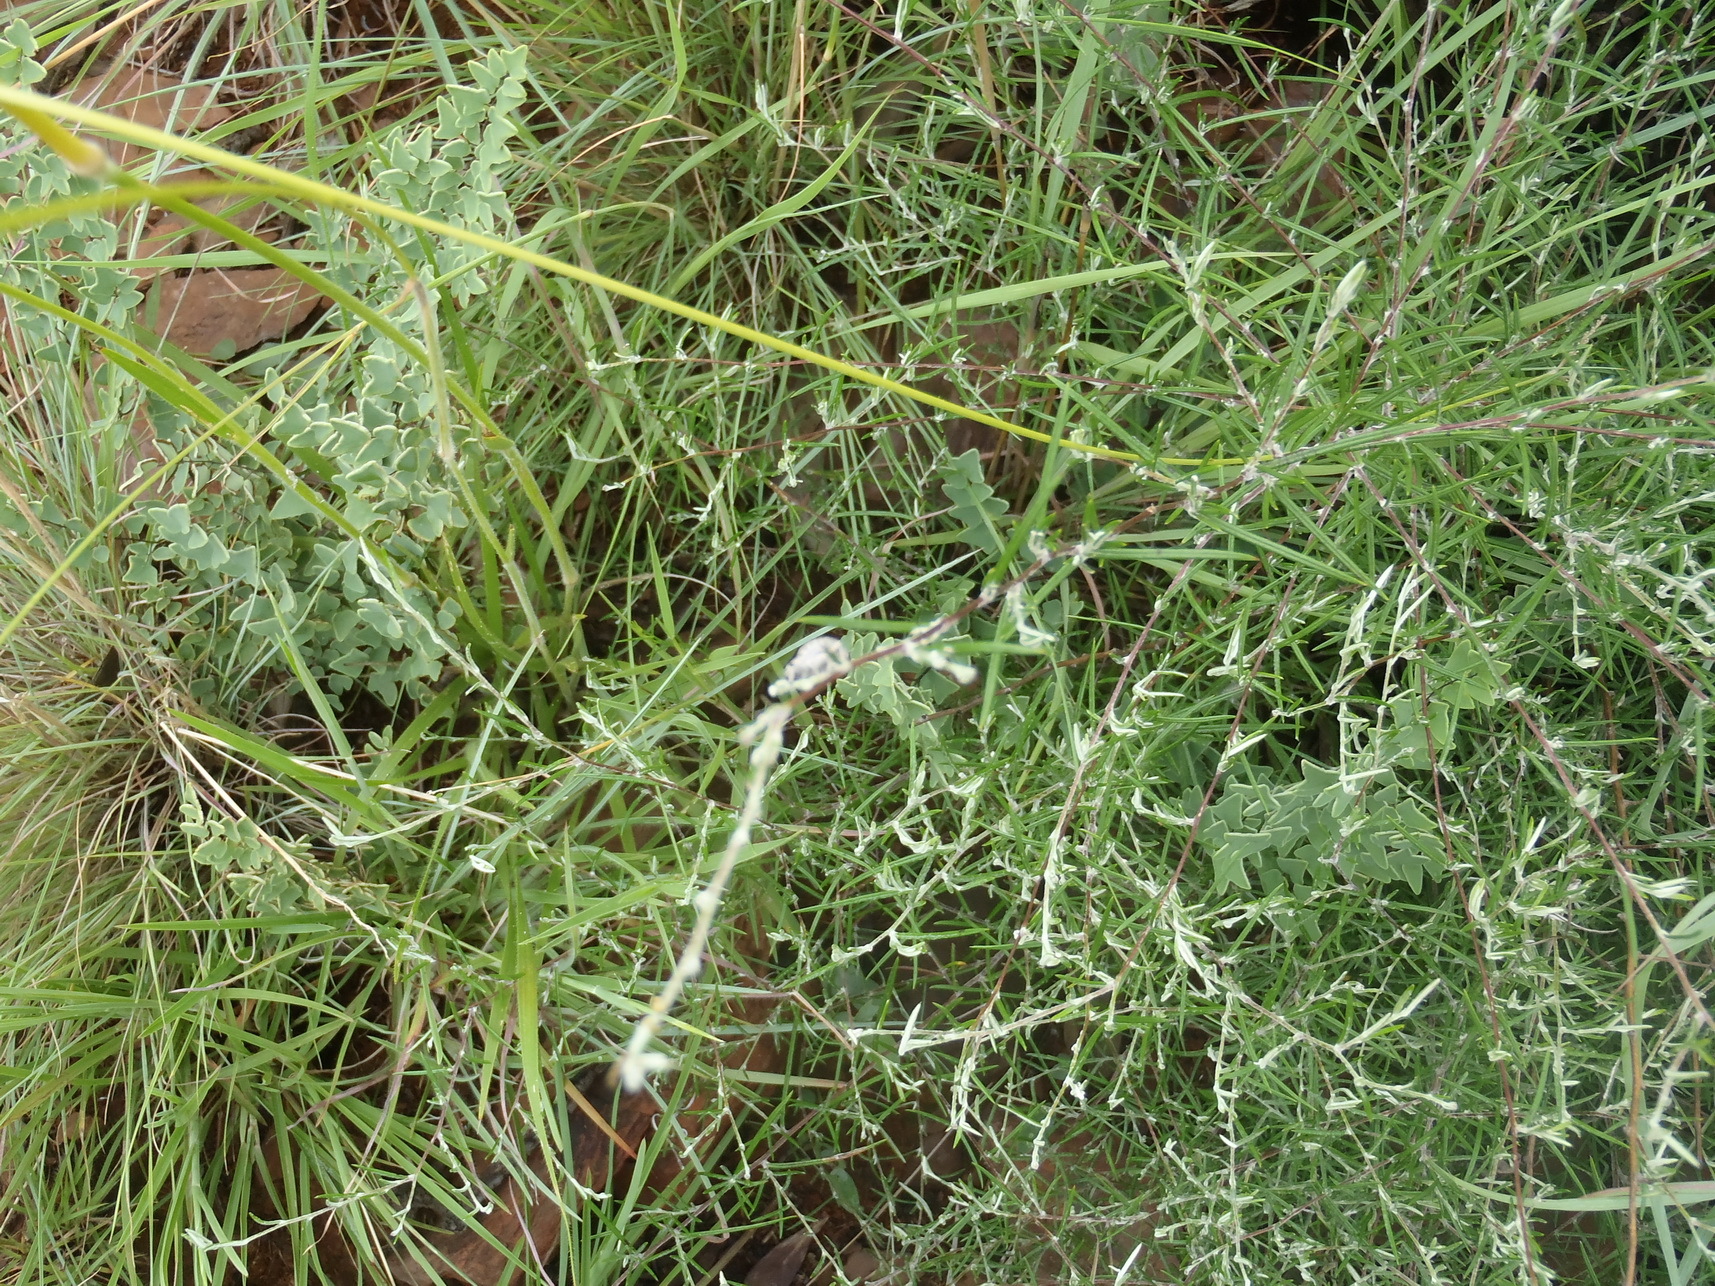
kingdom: Plantae
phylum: Tracheophyta
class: Magnoliopsida
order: Asterales
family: Asteraceae
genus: Athrixia
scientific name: Athrixia elata
